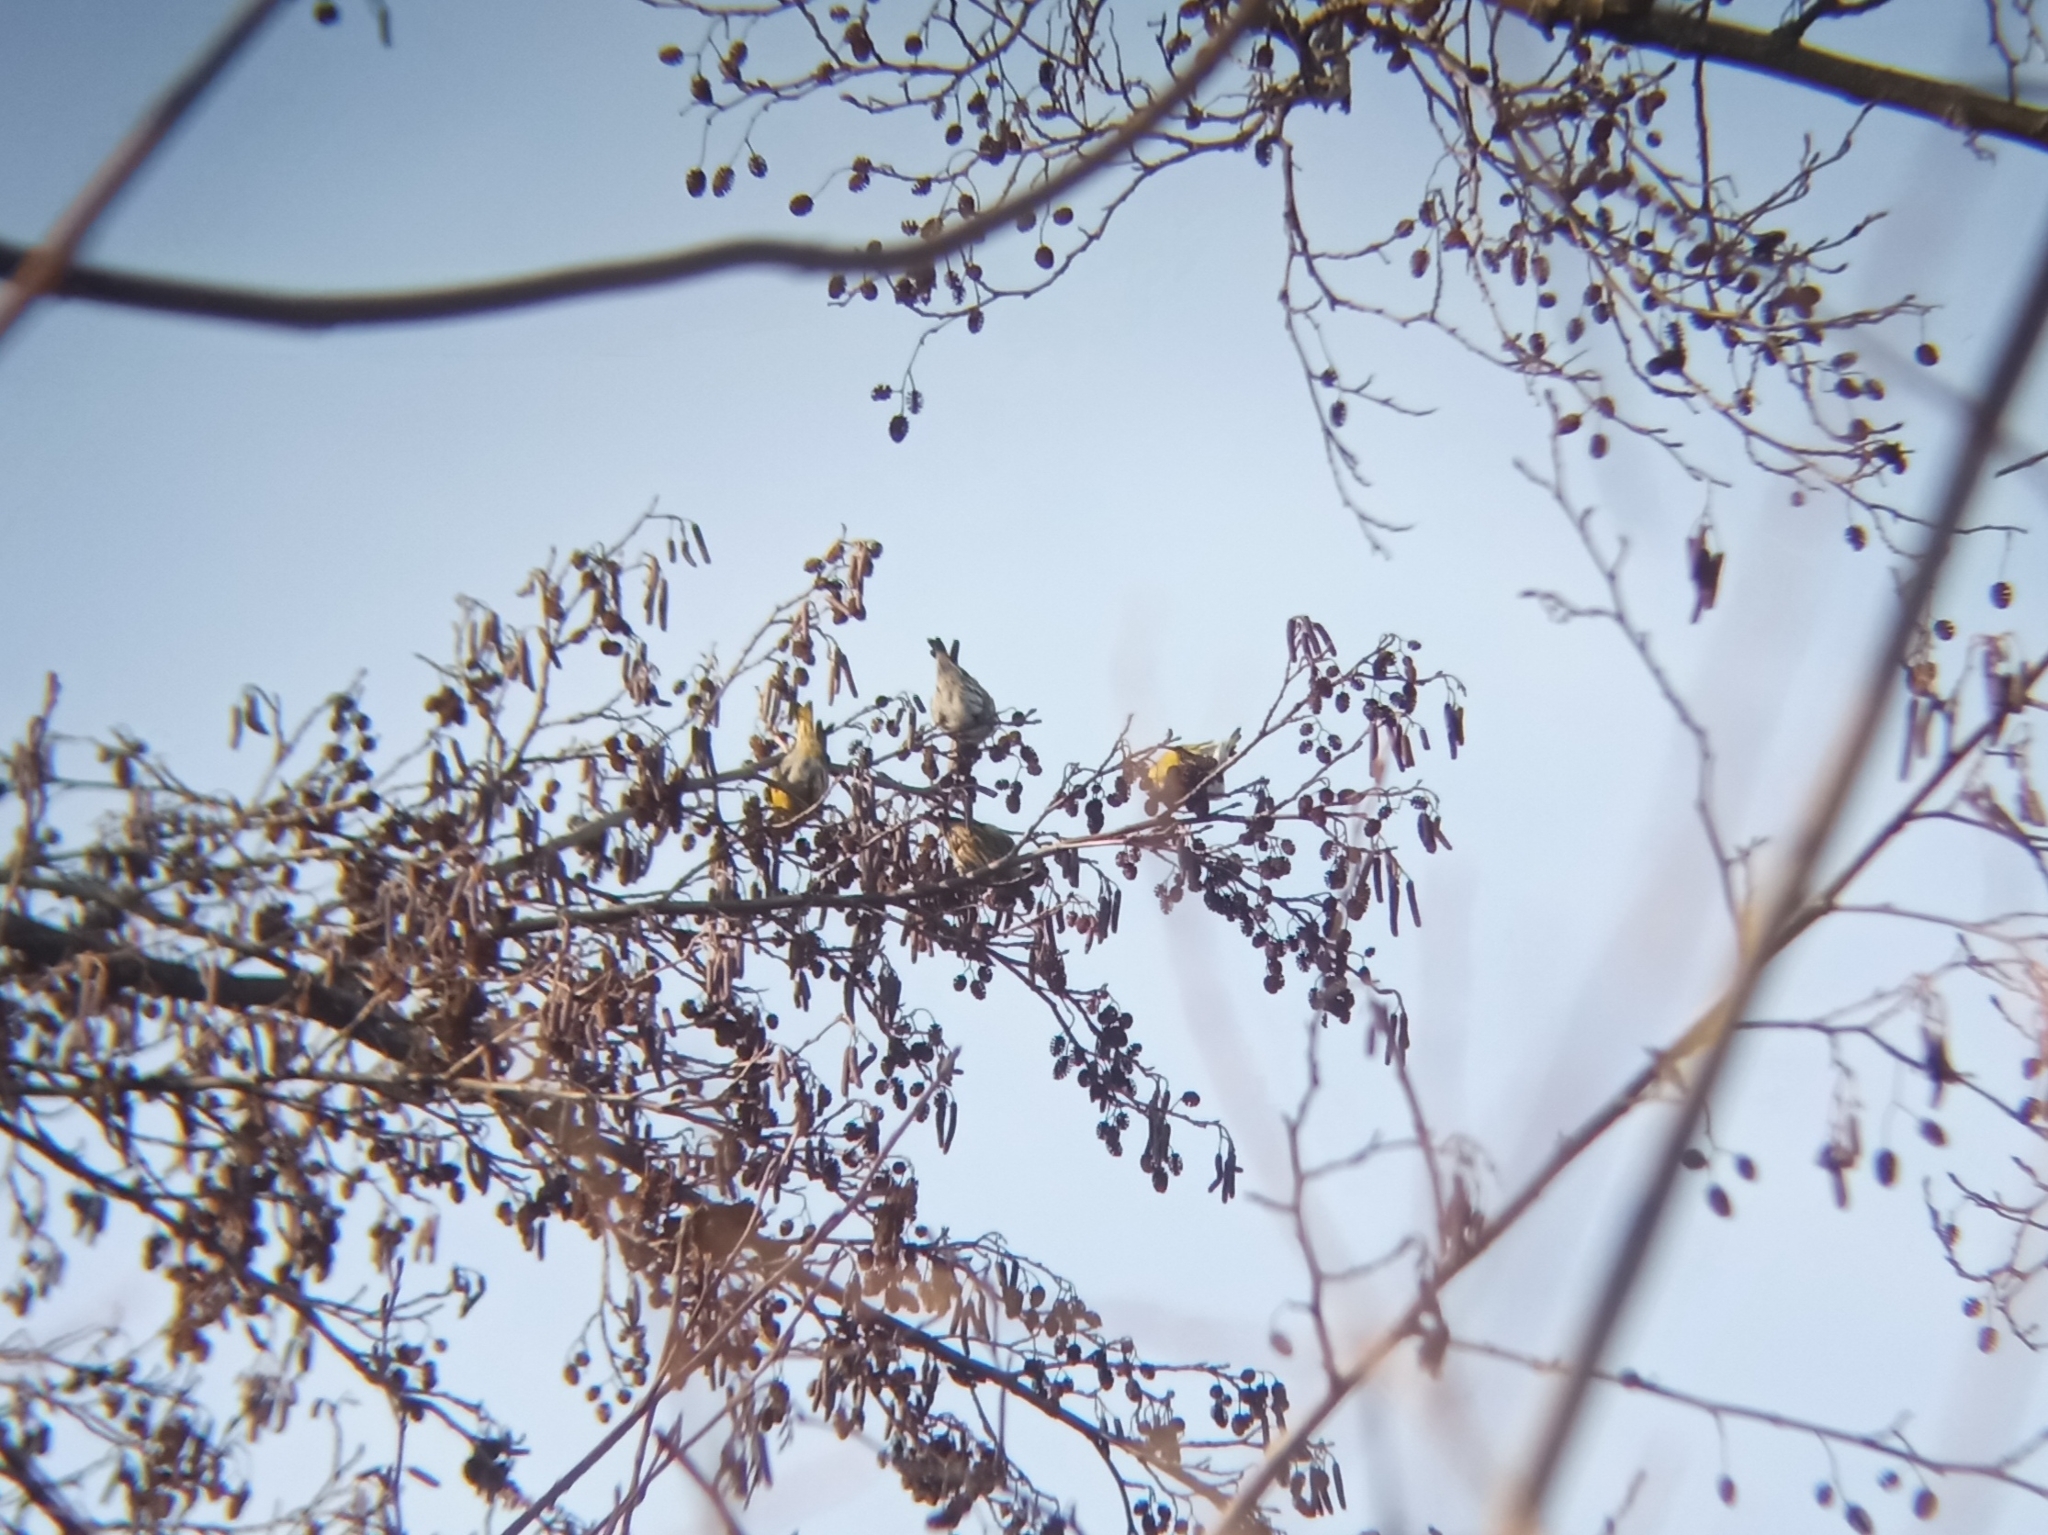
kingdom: Animalia
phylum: Chordata
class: Aves
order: Passeriformes
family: Fringillidae
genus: Spinus
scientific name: Spinus spinus
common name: Eurasian siskin
